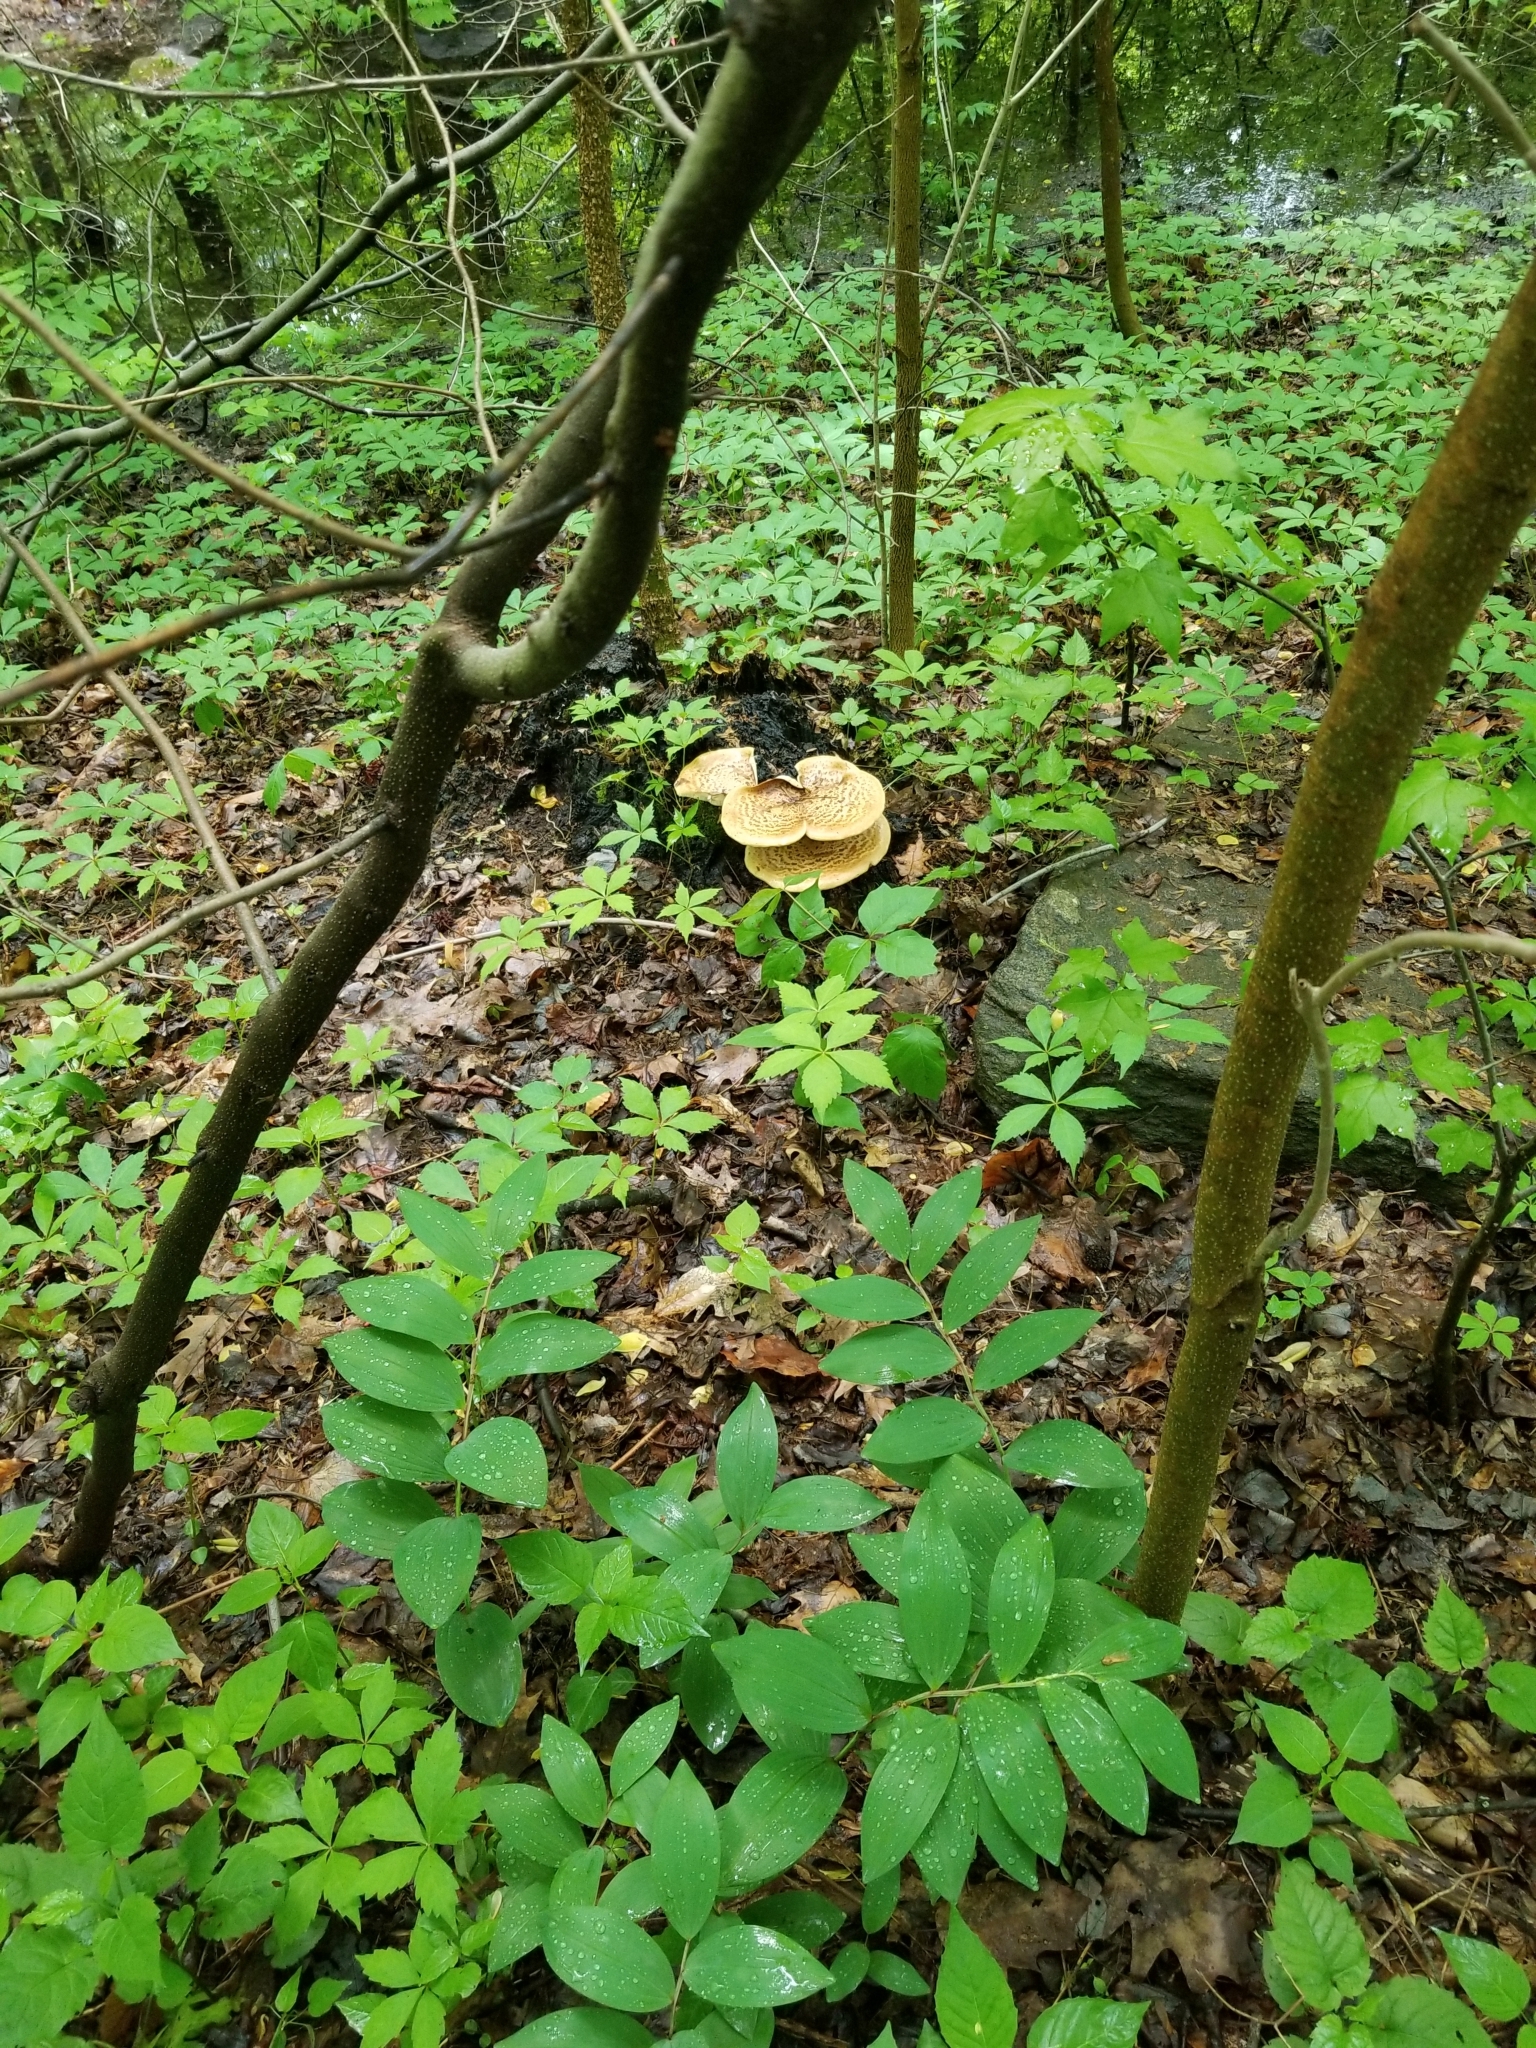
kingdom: Fungi
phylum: Basidiomycota
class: Agaricomycetes
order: Polyporales
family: Polyporaceae
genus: Cerioporus
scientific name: Cerioporus squamosus
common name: Dryad's saddle
